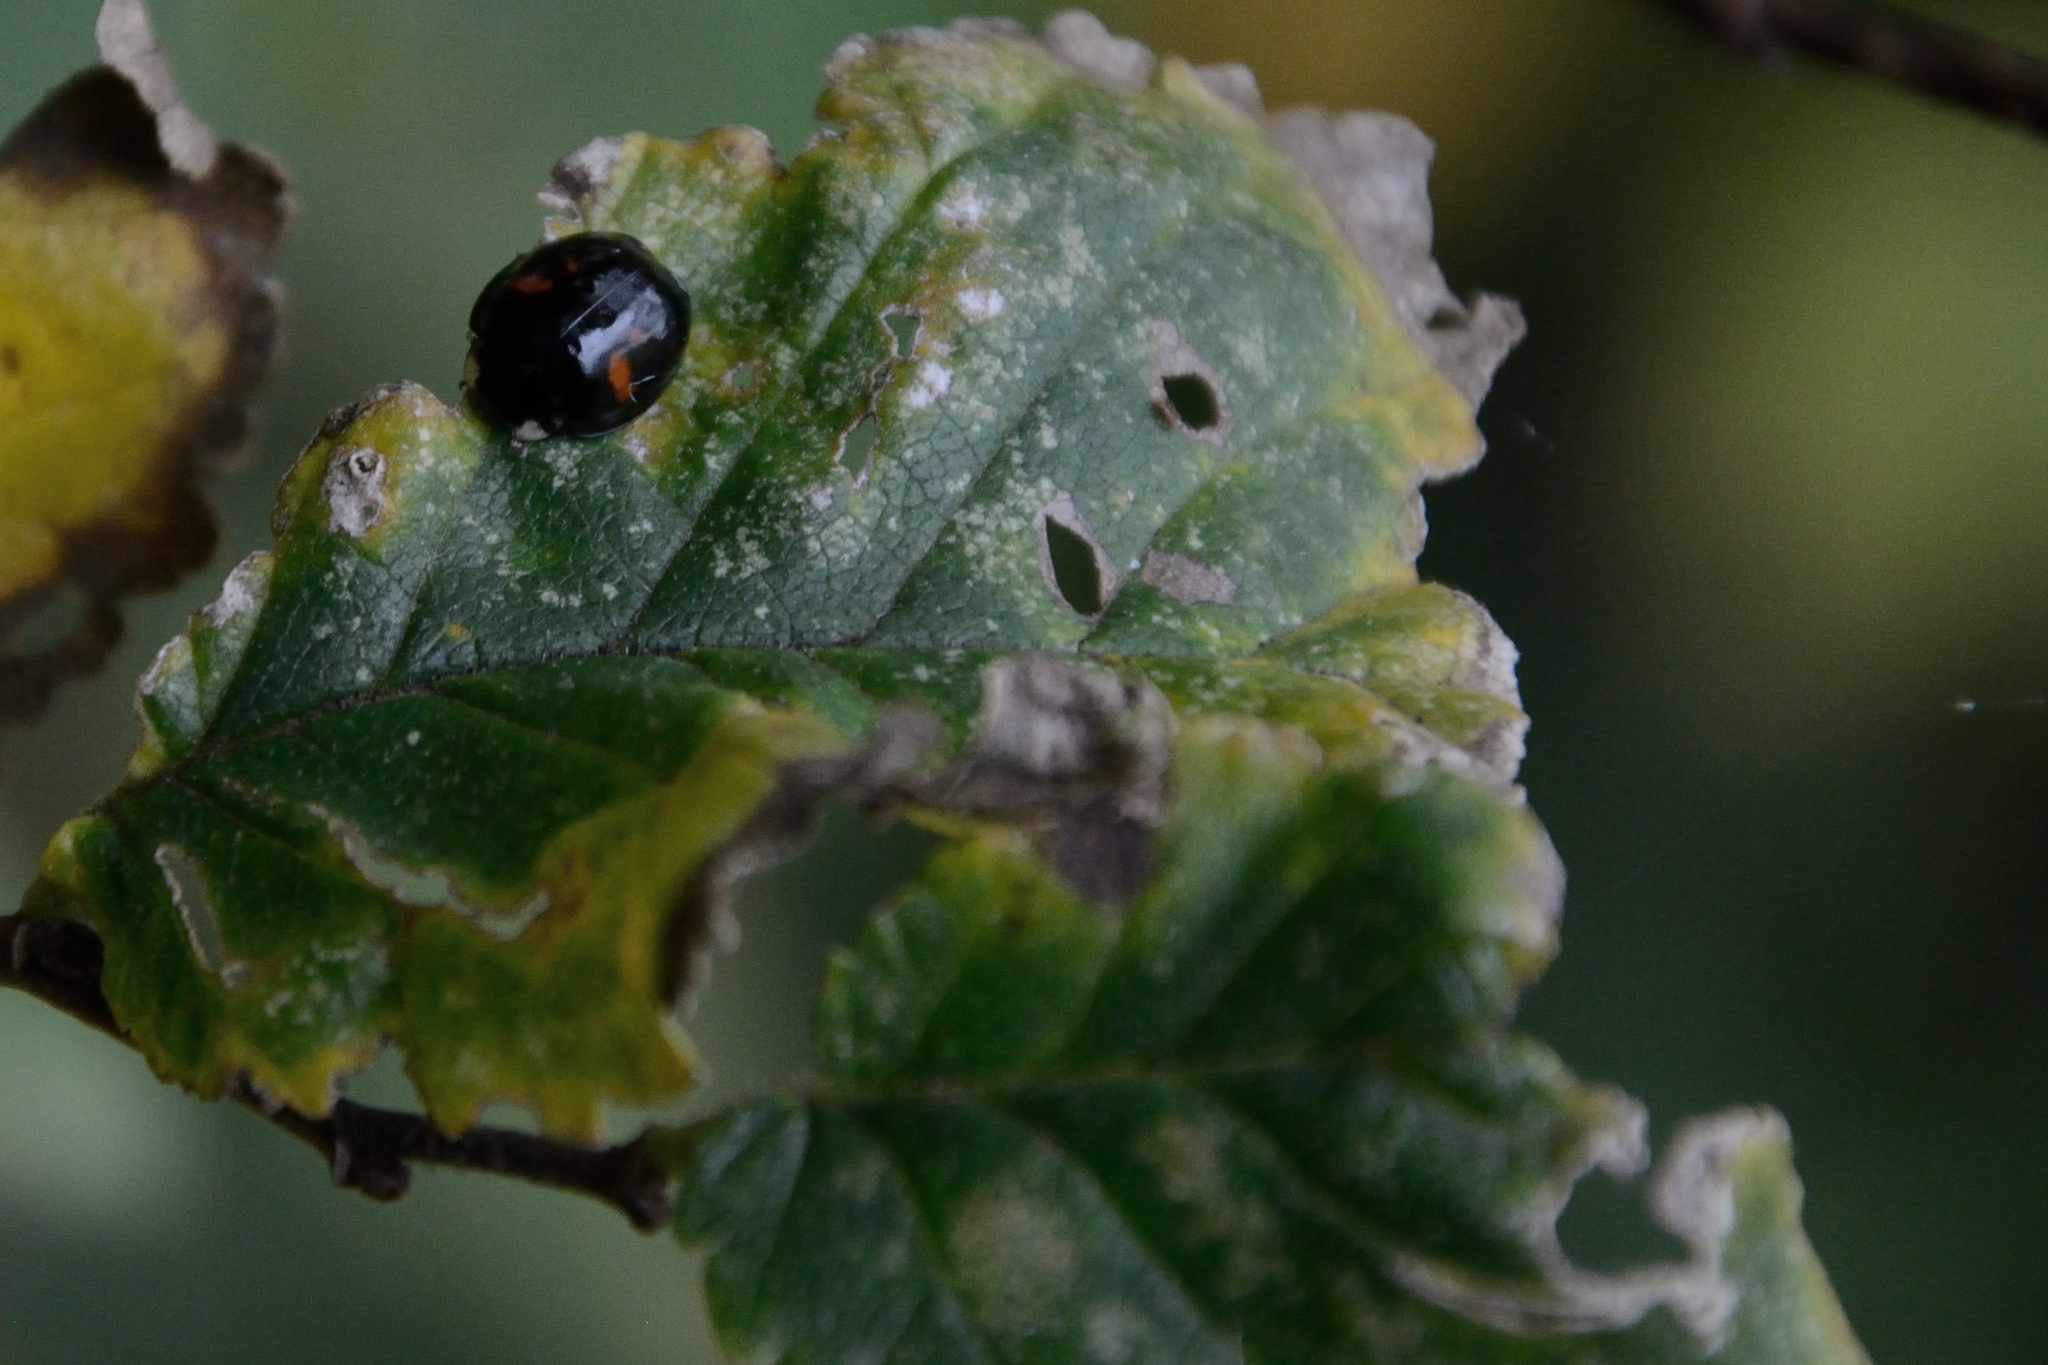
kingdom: Animalia
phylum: Arthropoda
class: Insecta
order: Coleoptera
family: Coccinellidae
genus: Harmonia
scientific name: Harmonia axyridis
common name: Harlequin ladybird
